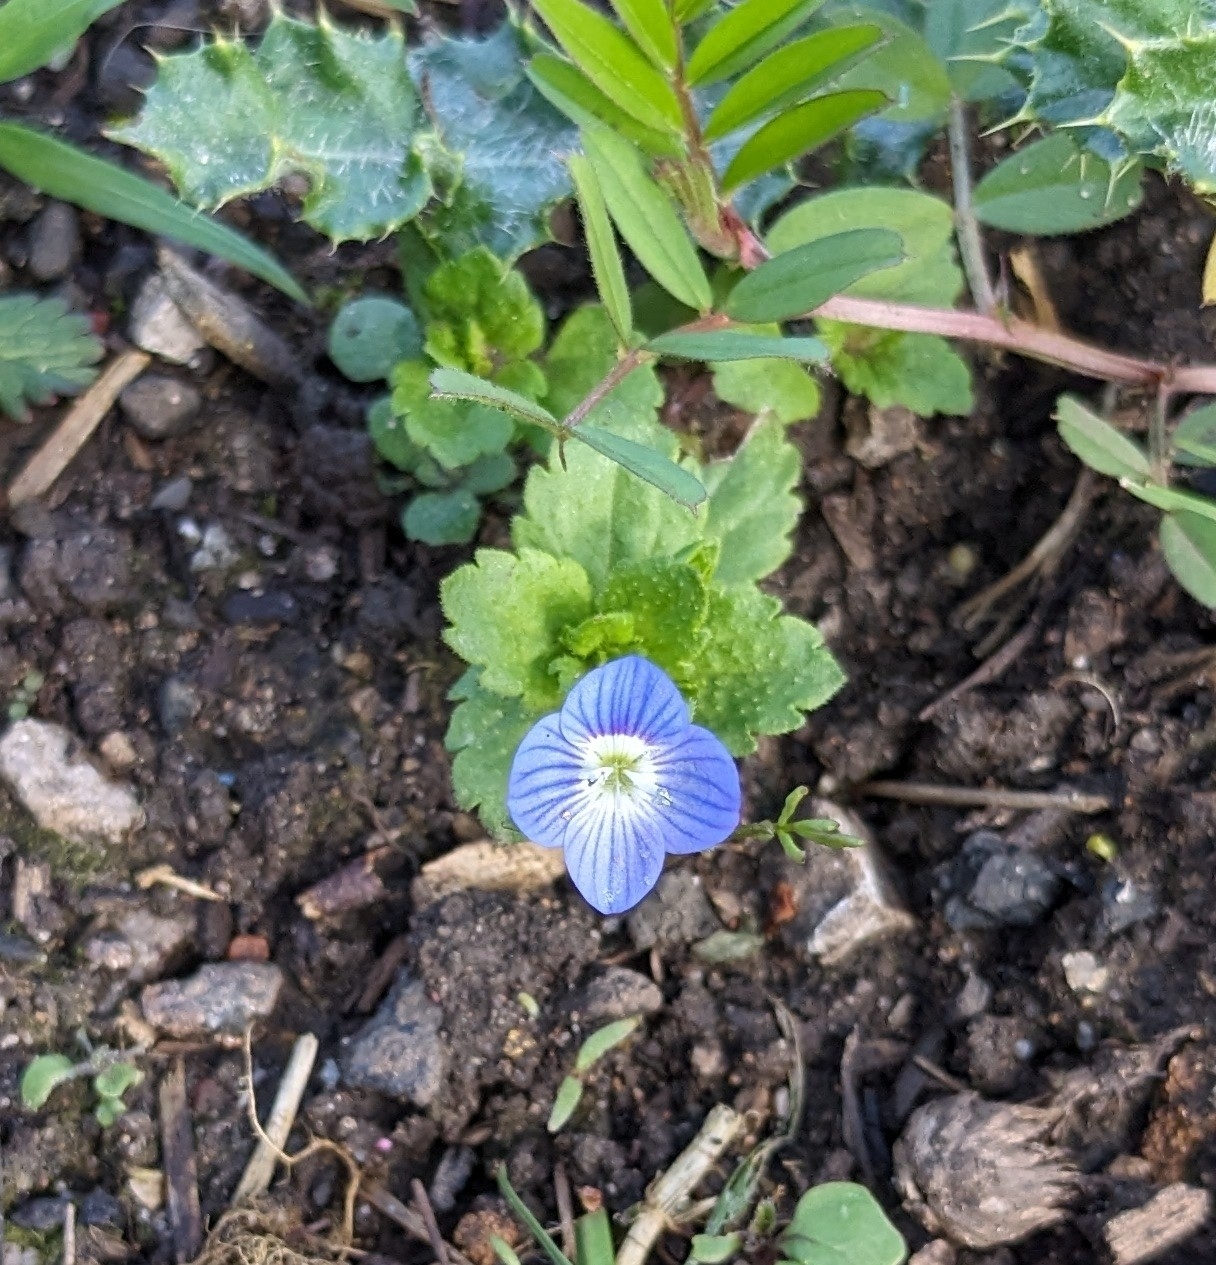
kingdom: Plantae
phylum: Tracheophyta
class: Magnoliopsida
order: Lamiales
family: Plantaginaceae
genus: Veronica
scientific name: Veronica persica
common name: Common field-speedwell
